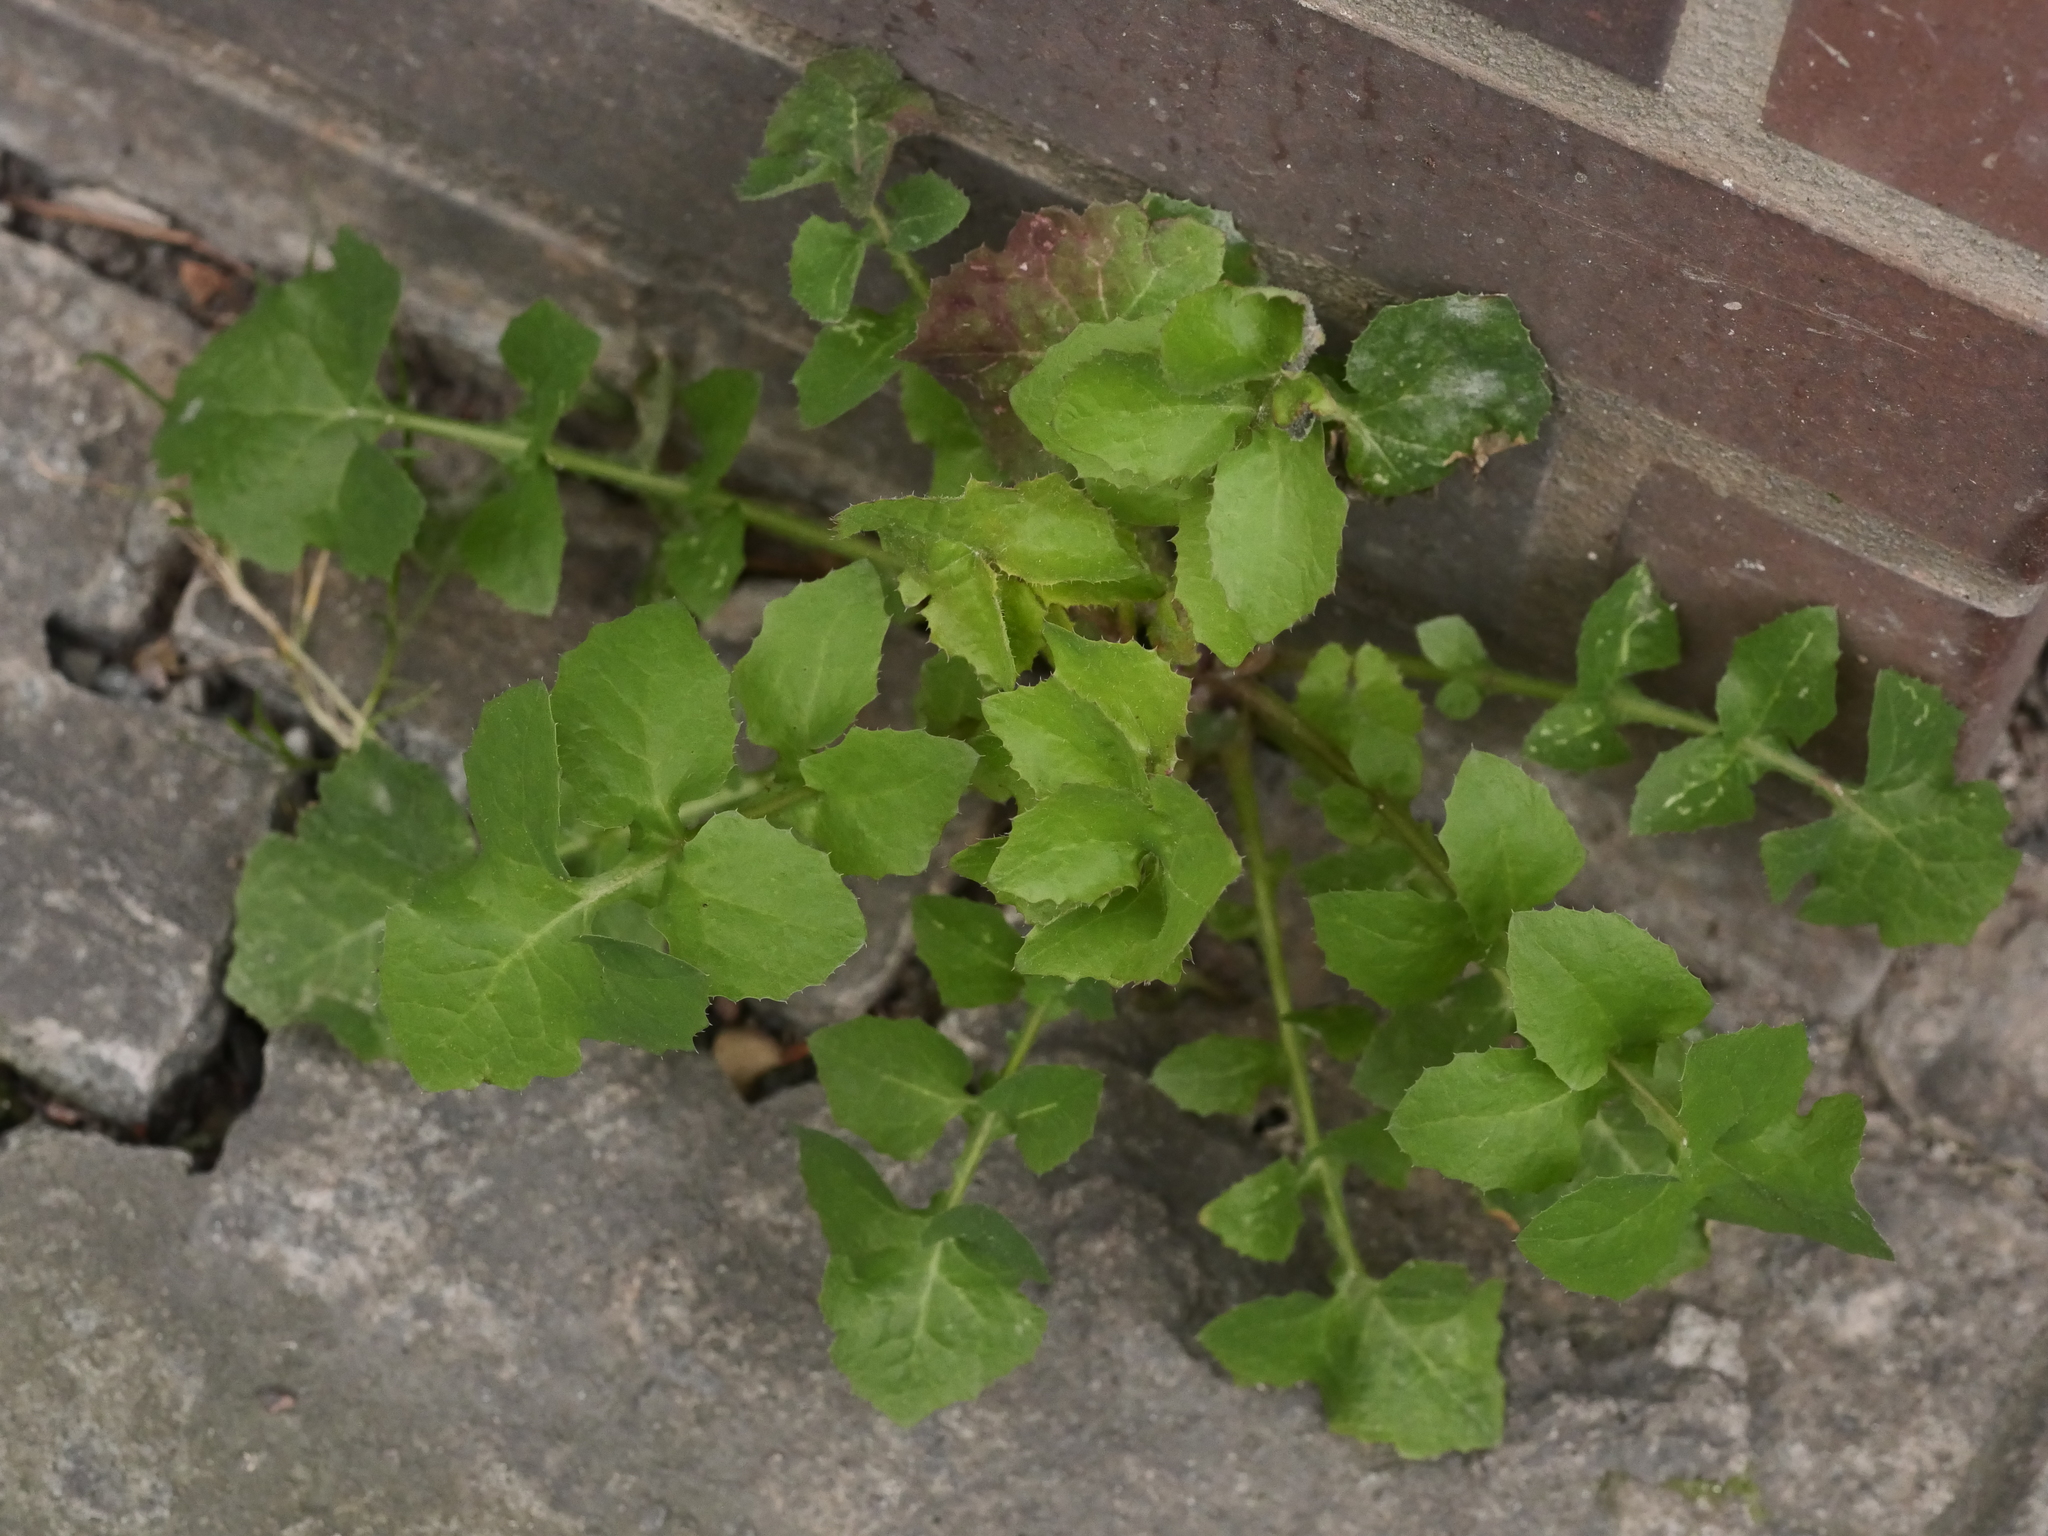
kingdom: Plantae
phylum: Tracheophyta
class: Magnoliopsida
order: Asterales
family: Asteraceae
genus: Sonchus
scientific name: Sonchus oleraceus
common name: Common sowthistle
